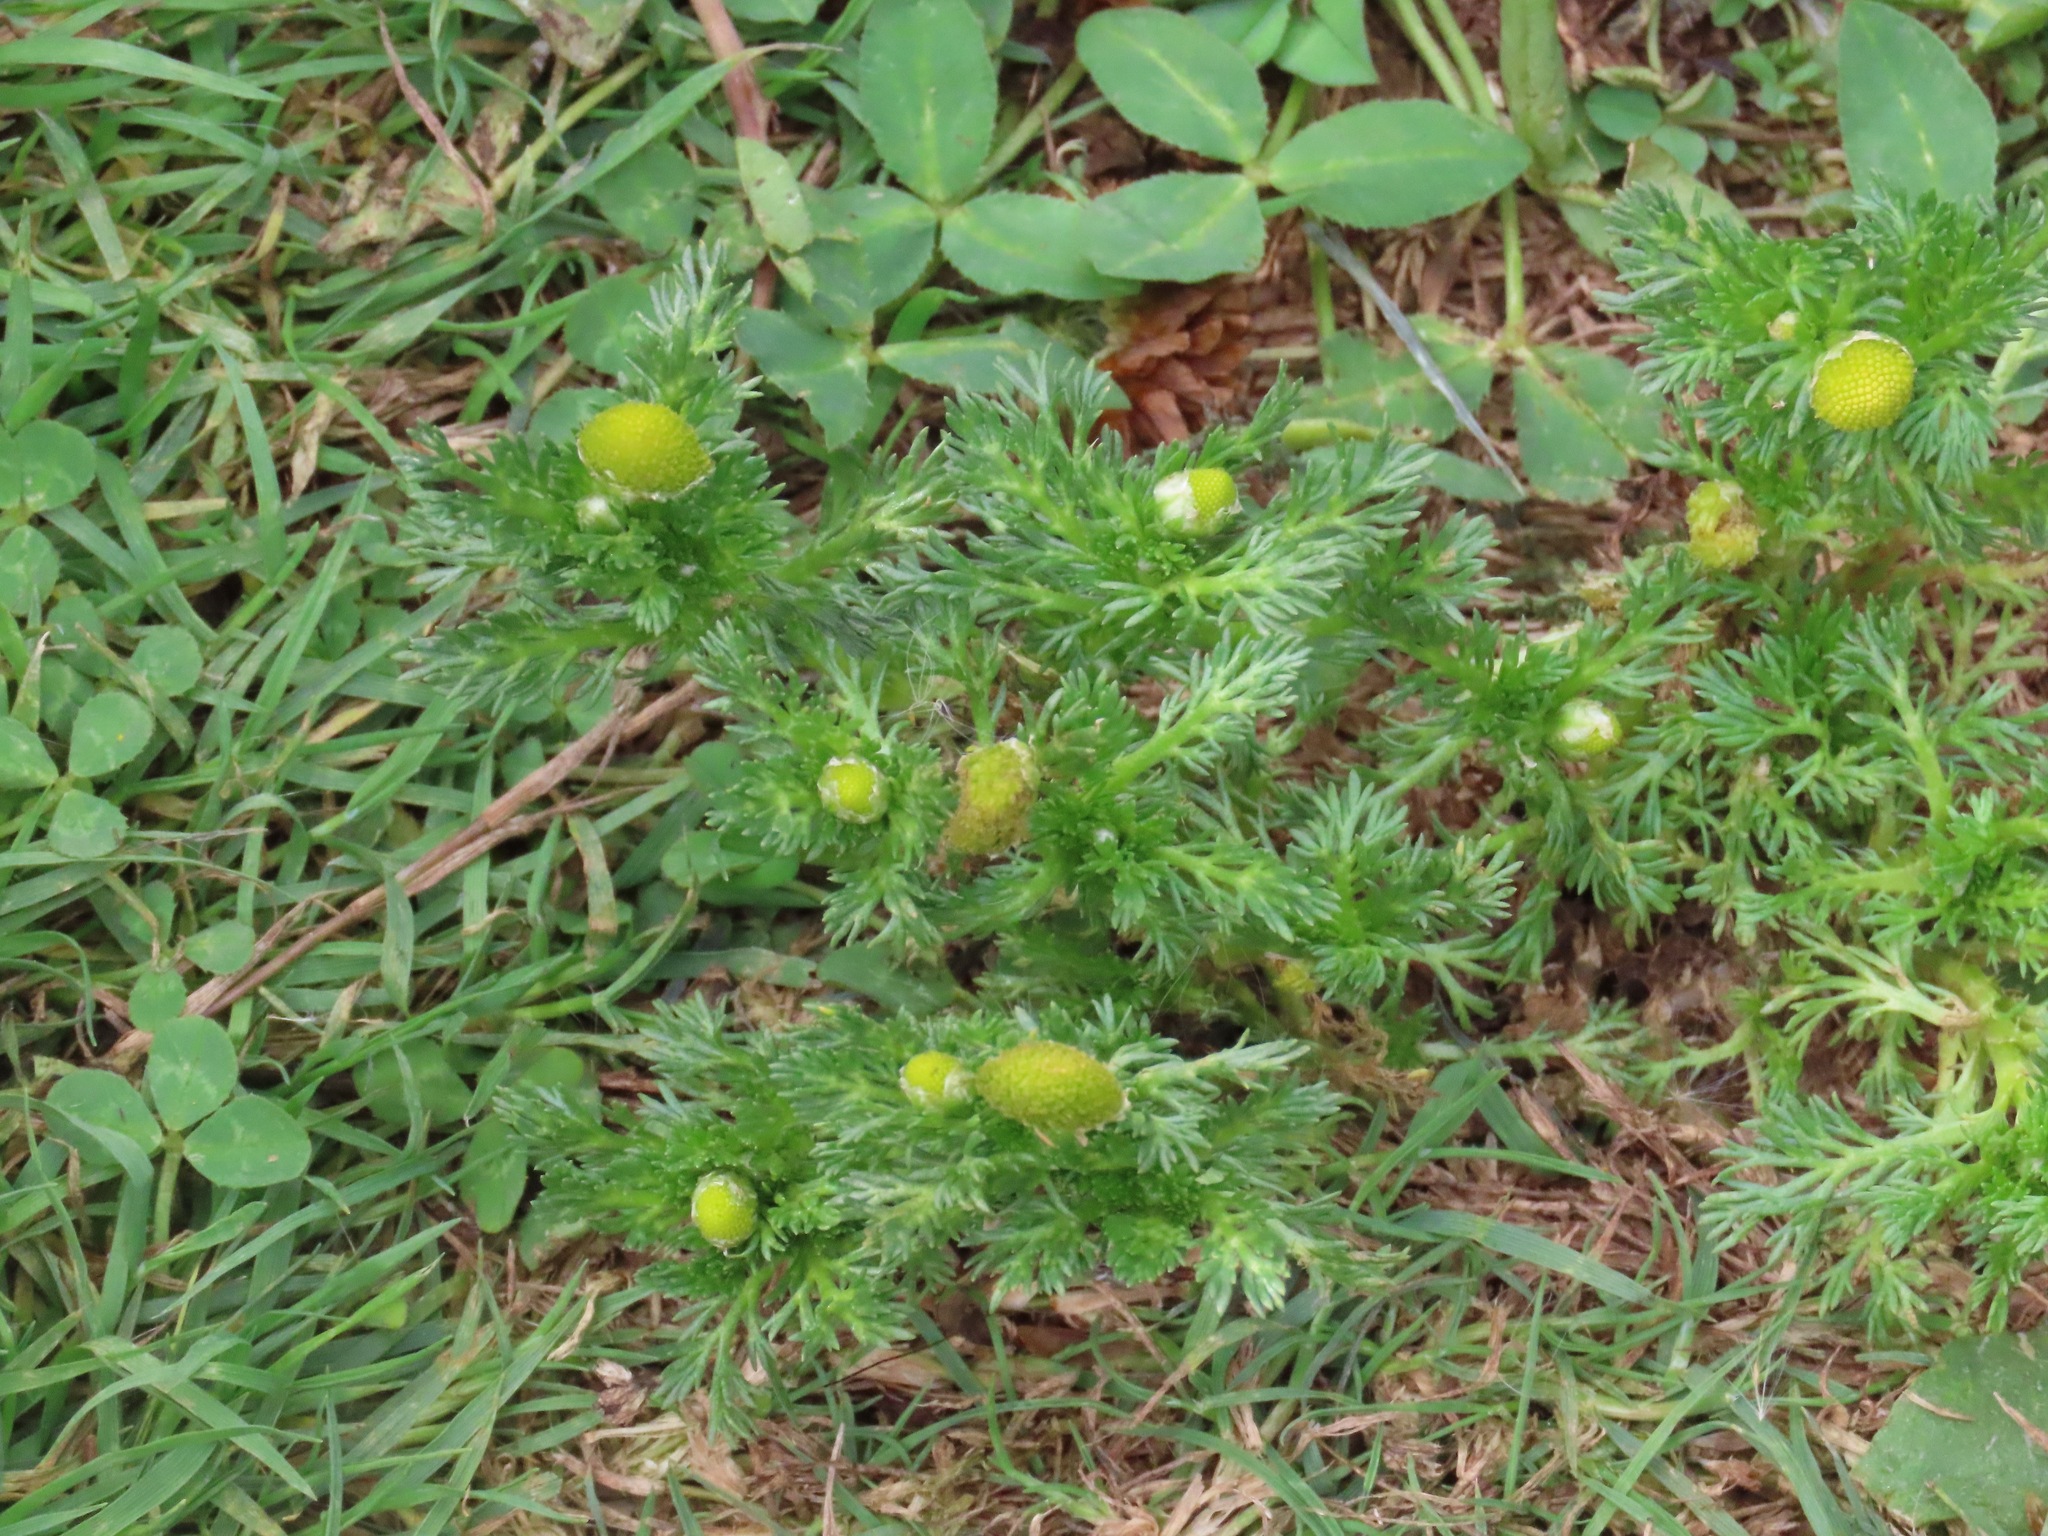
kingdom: Plantae
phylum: Tracheophyta
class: Magnoliopsida
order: Asterales
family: Asteraceae
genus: Matricaria
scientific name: Matricaria discoidea
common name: Disc mayweed
